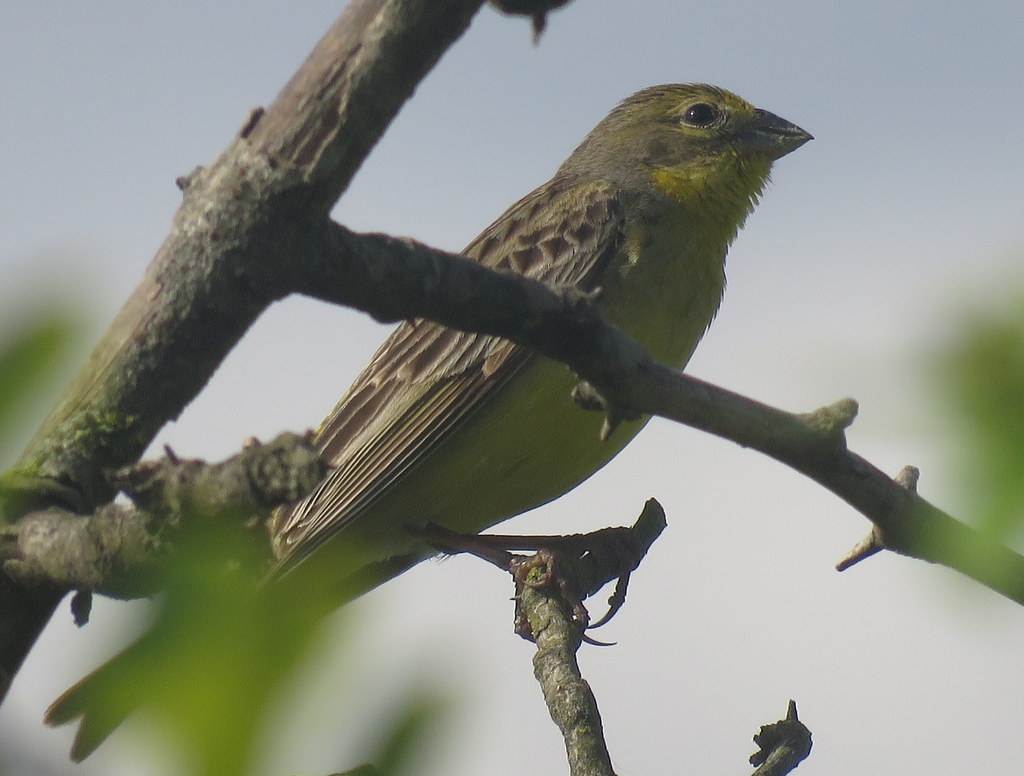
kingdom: Animalia
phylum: Chordata
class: Aves
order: Passeriformes
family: Thraupidae
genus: Sicalis
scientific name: Sicalis luteola
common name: Grassland yellow-finch
